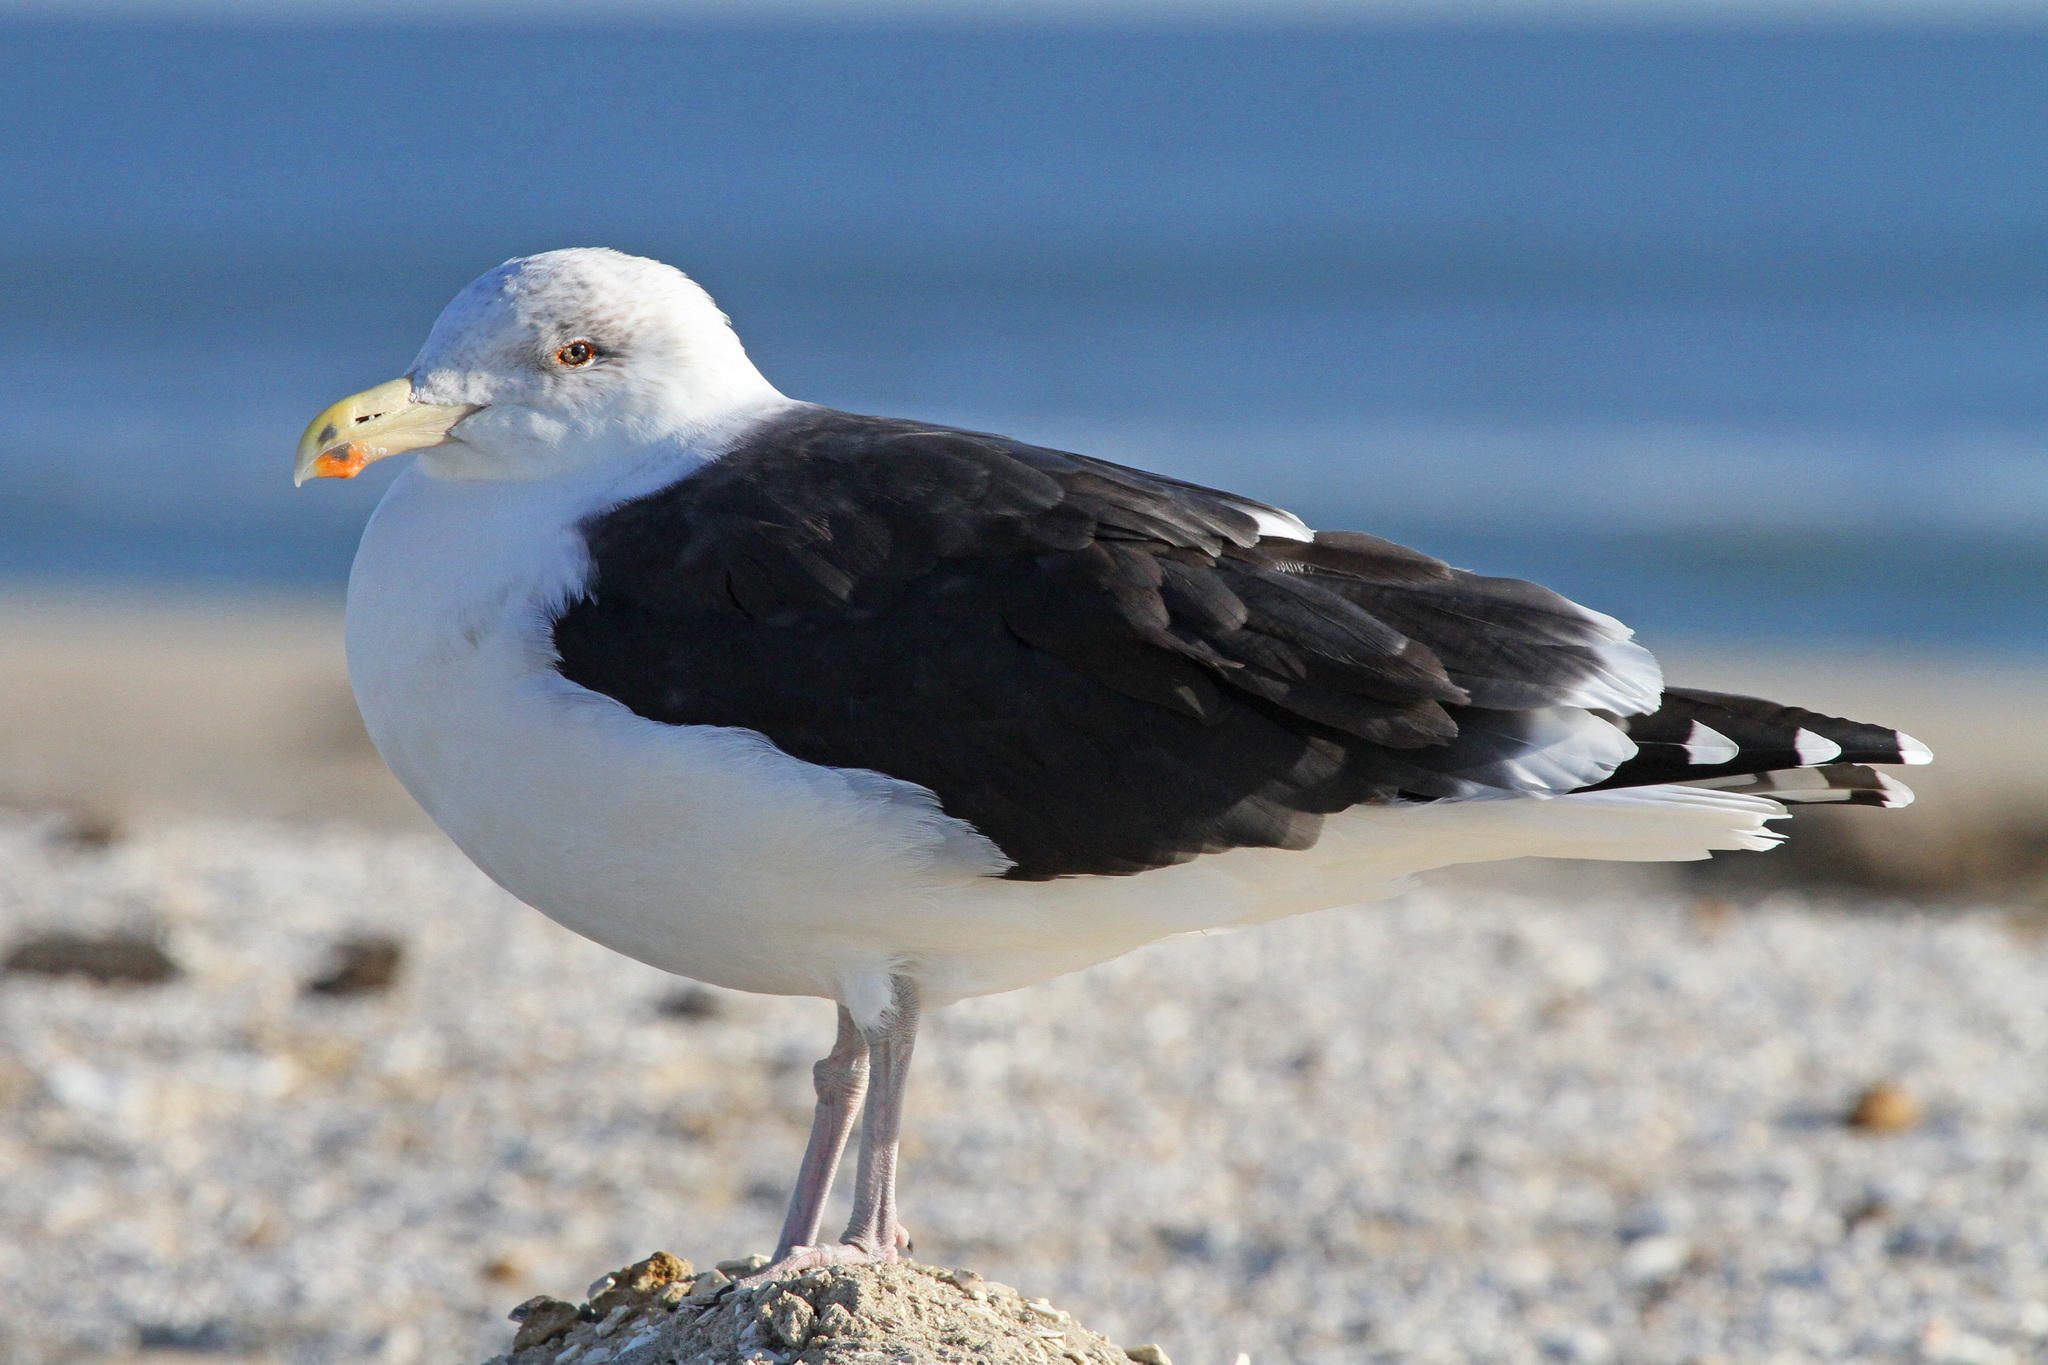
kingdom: Animalia
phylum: Chordata
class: Aves
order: Charadriiformes
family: Laridae
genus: Larus
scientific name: Larus marinus
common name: Great black-backed gull
